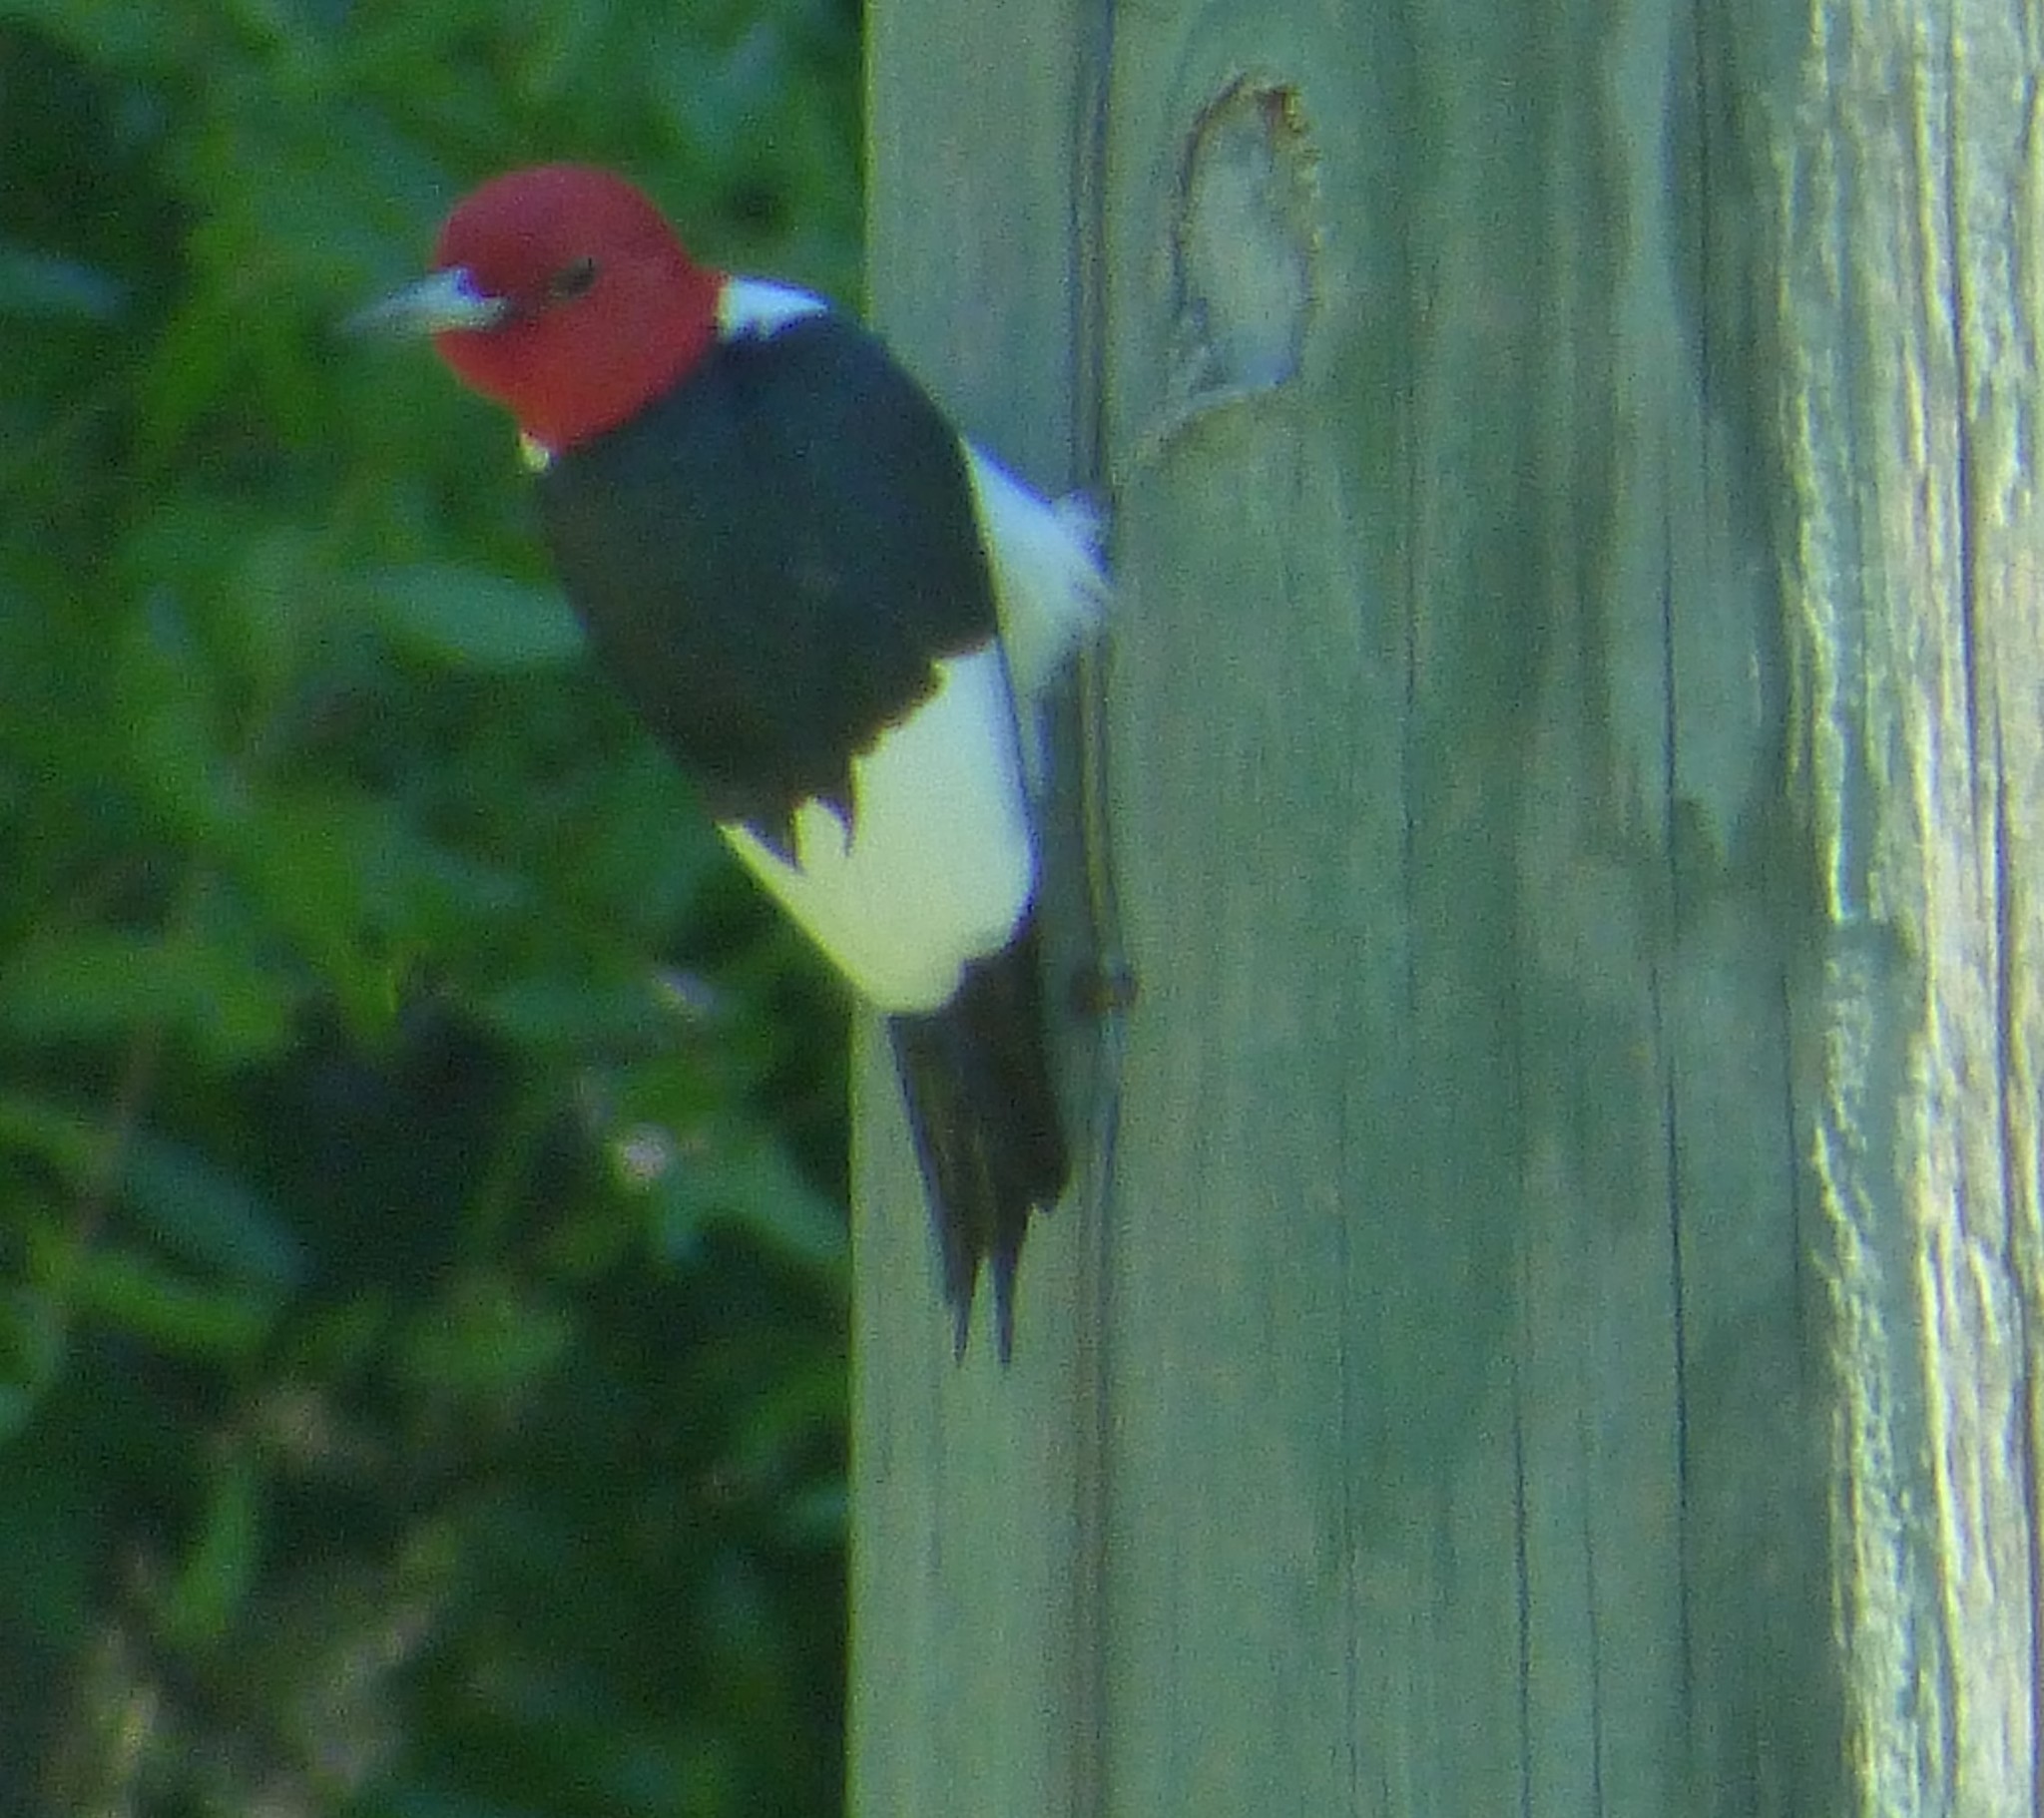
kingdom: Animalia
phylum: Chordata
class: Aves
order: Piciformes
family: Picidae
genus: Melanerpes
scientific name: Melanerpes erythrocephalus
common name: Red-headed woodpecker
